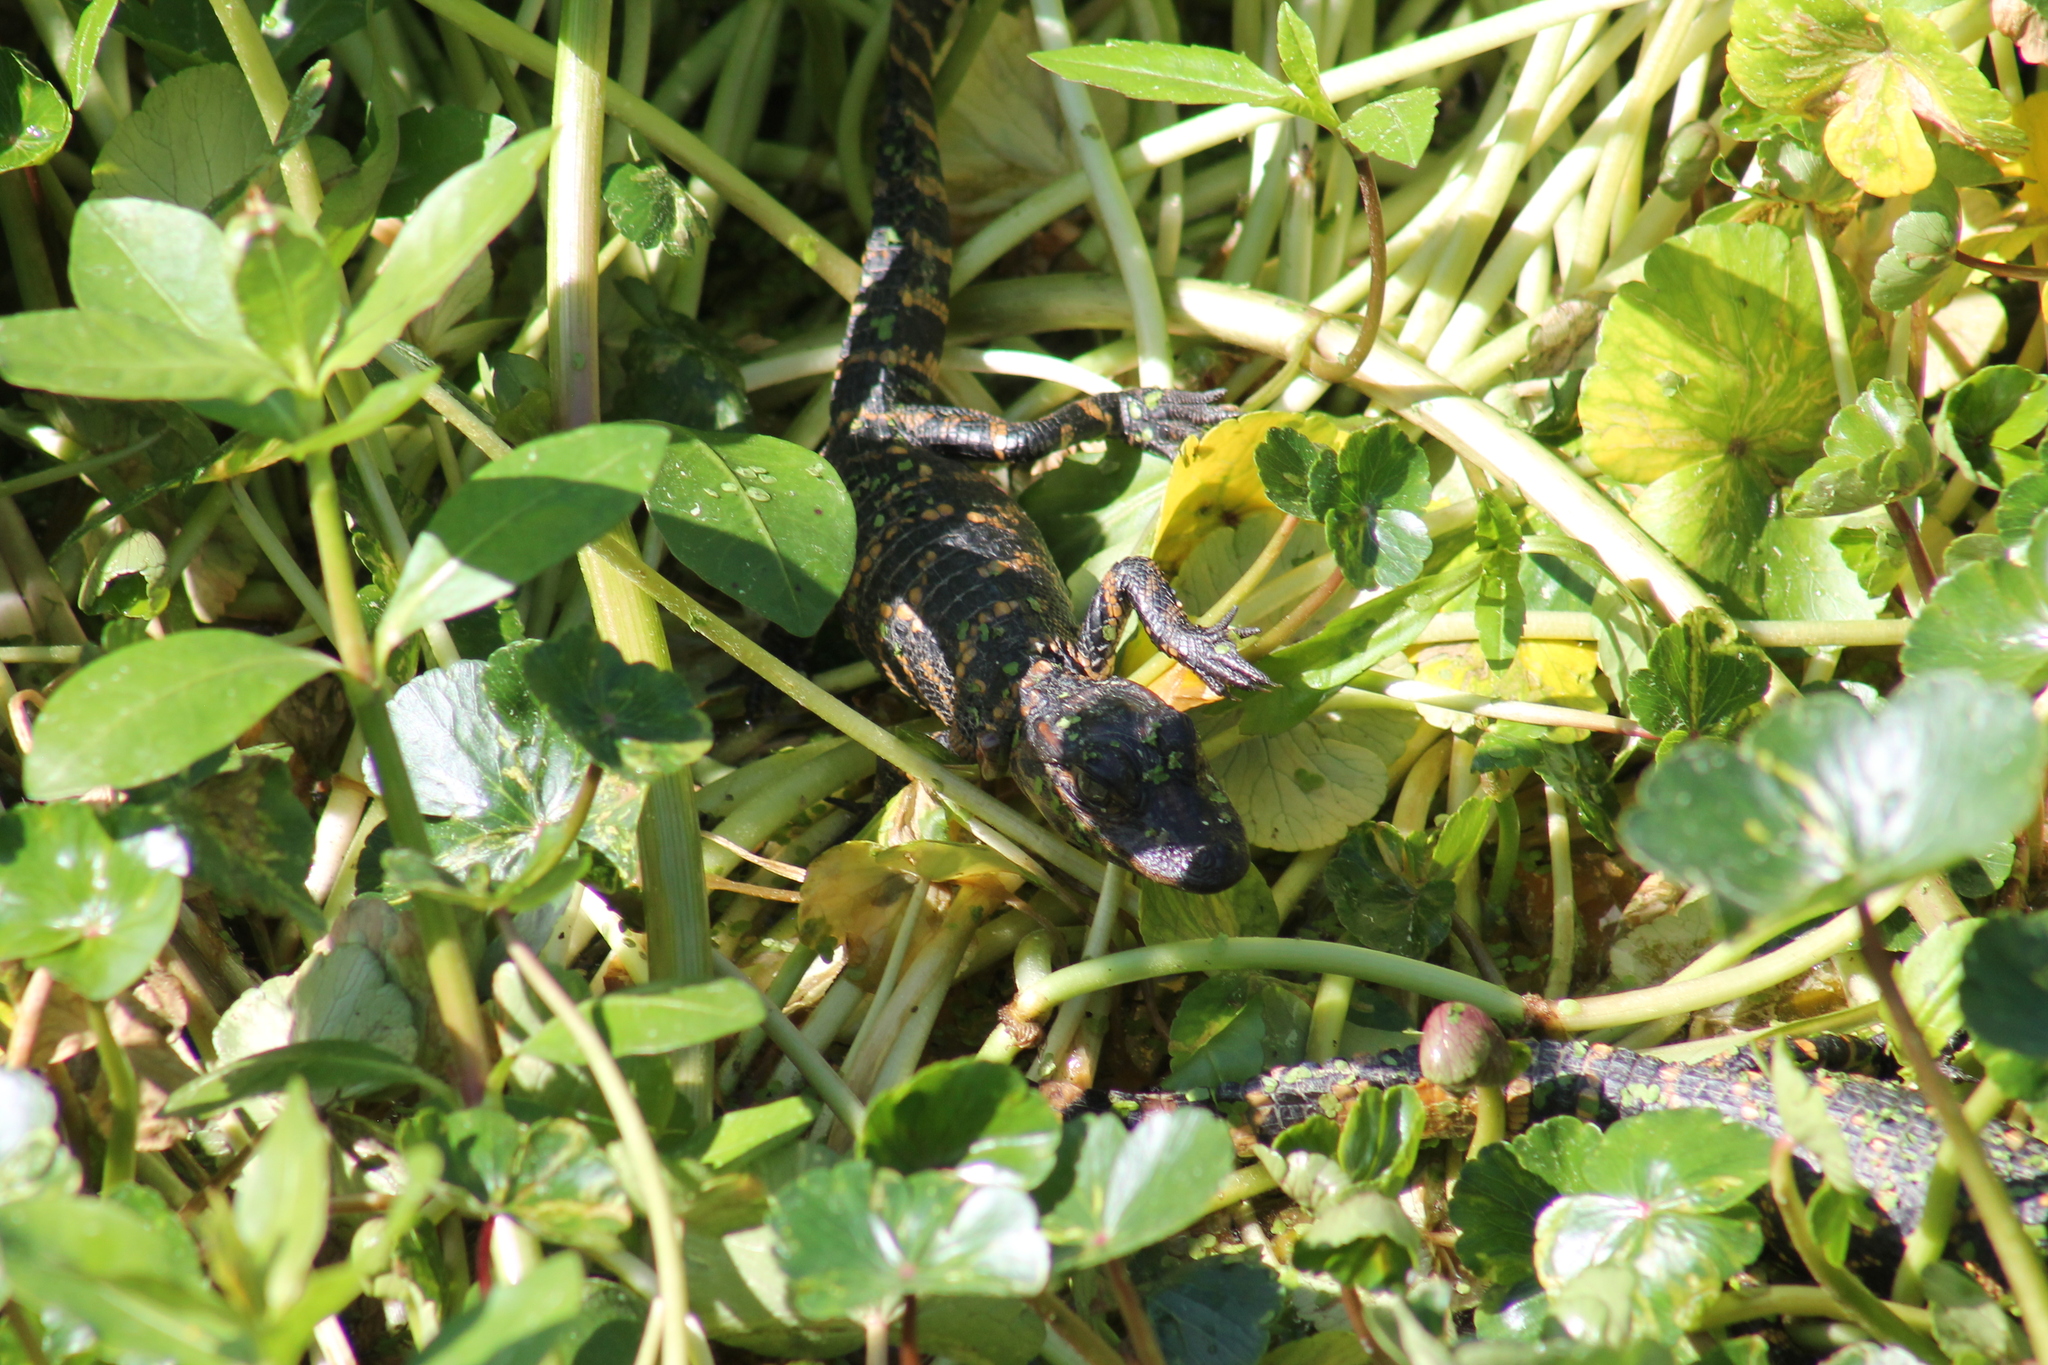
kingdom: Animalia
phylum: Chordata
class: Crocodylia
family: Alligatoridae
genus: Alligator
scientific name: Alligator mississippiensis
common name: American alligator
